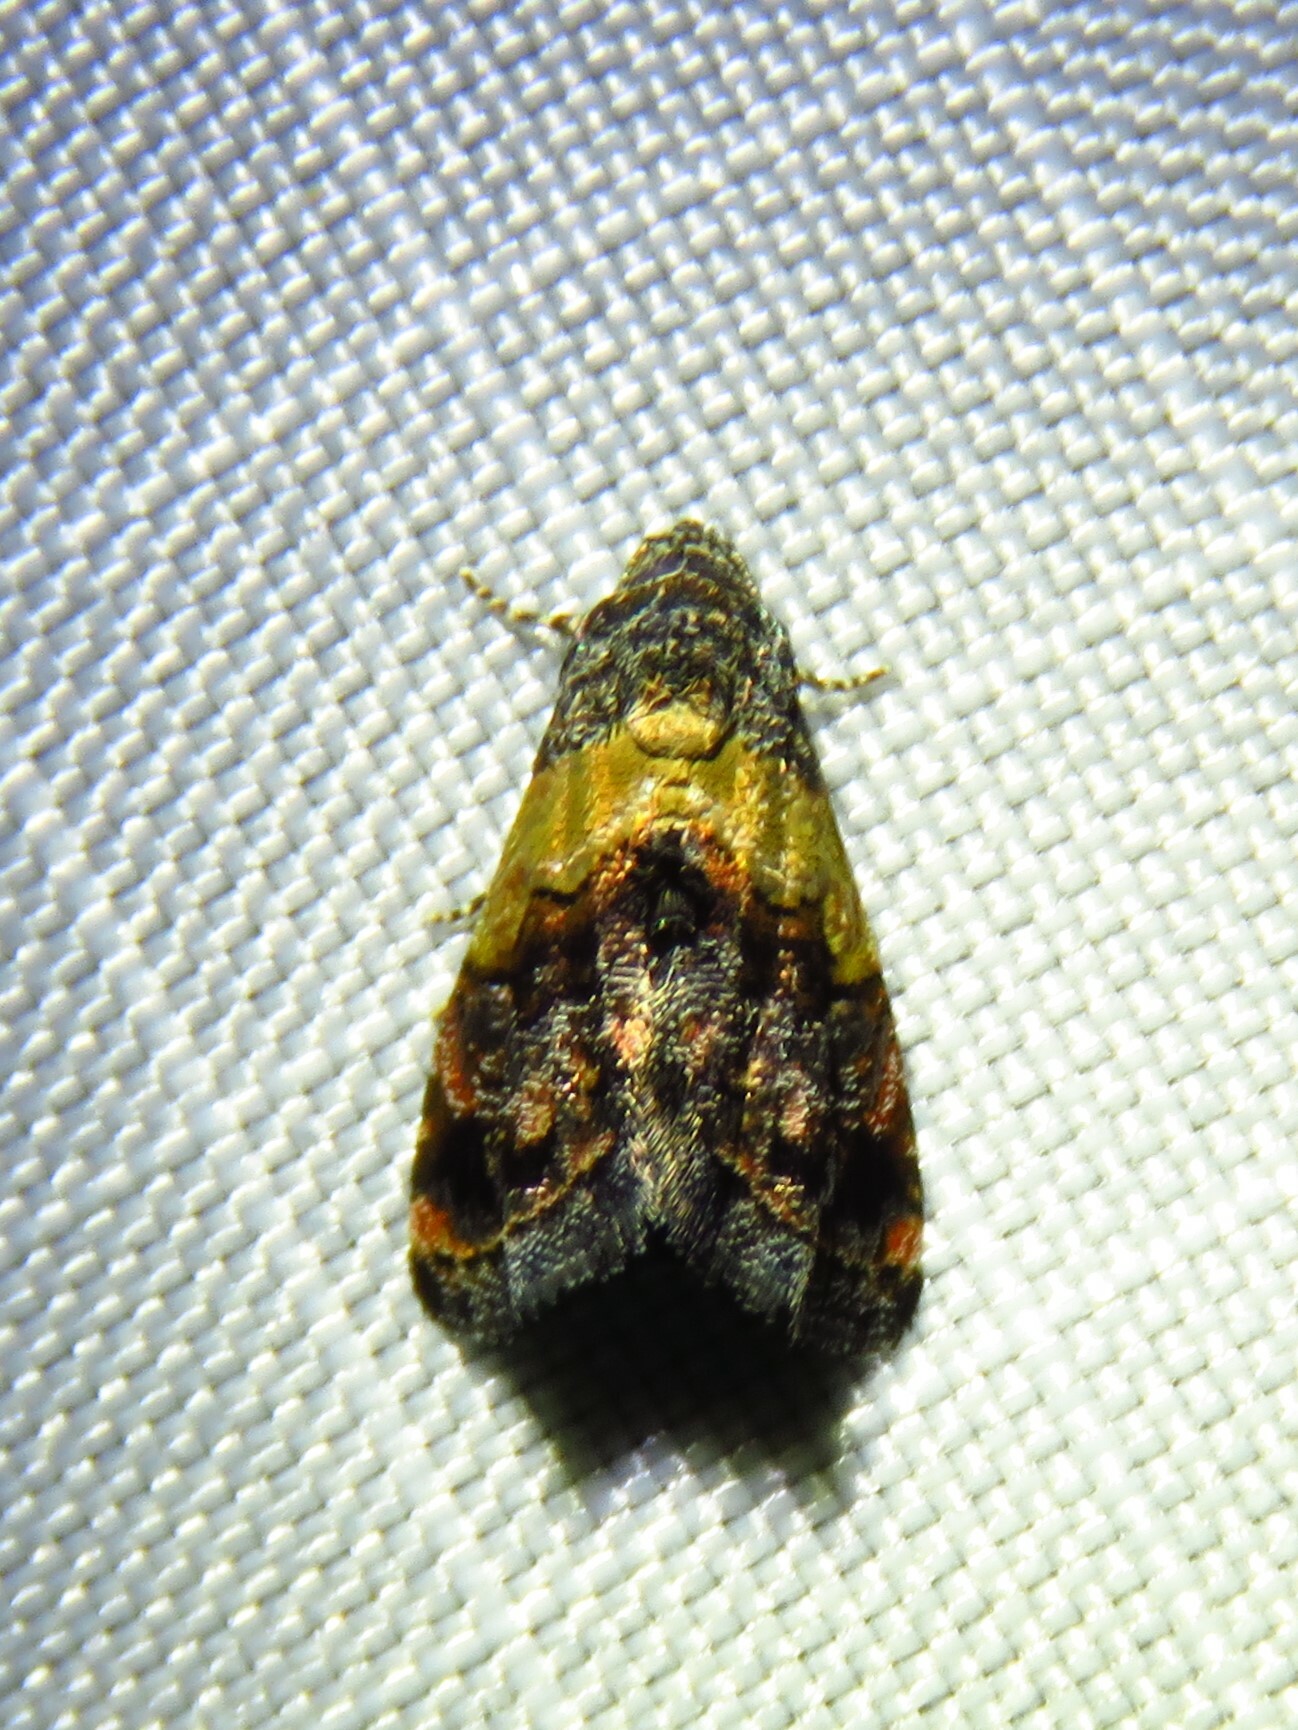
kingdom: Animalia
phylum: Arthropoda
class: Insecta
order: Lepidoptera
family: Noctuidae
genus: Tripudia
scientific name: Tripudia flavofasciata
